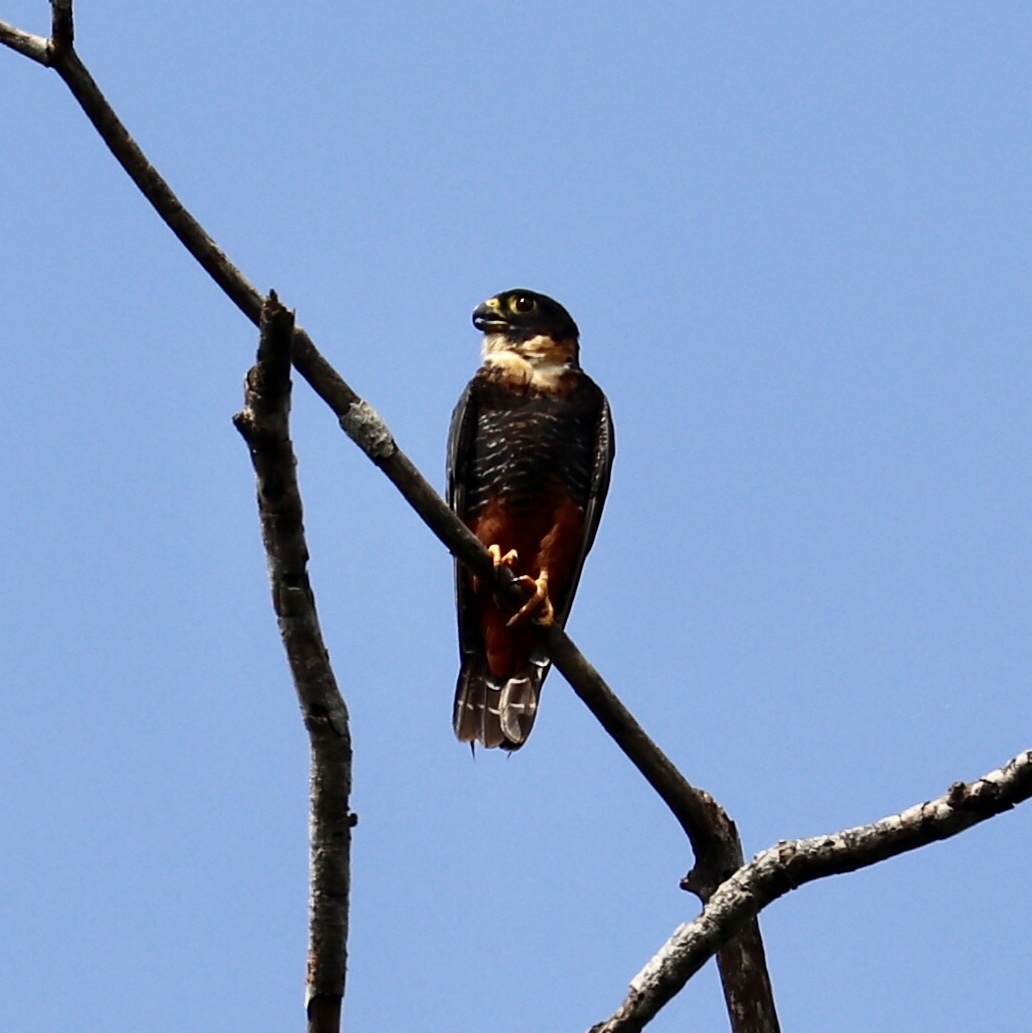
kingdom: Animalia
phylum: Chordata
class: Aves
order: Falconiformes
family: Falconidae
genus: Falco
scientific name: Falco rufigularis
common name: Bat falcon
